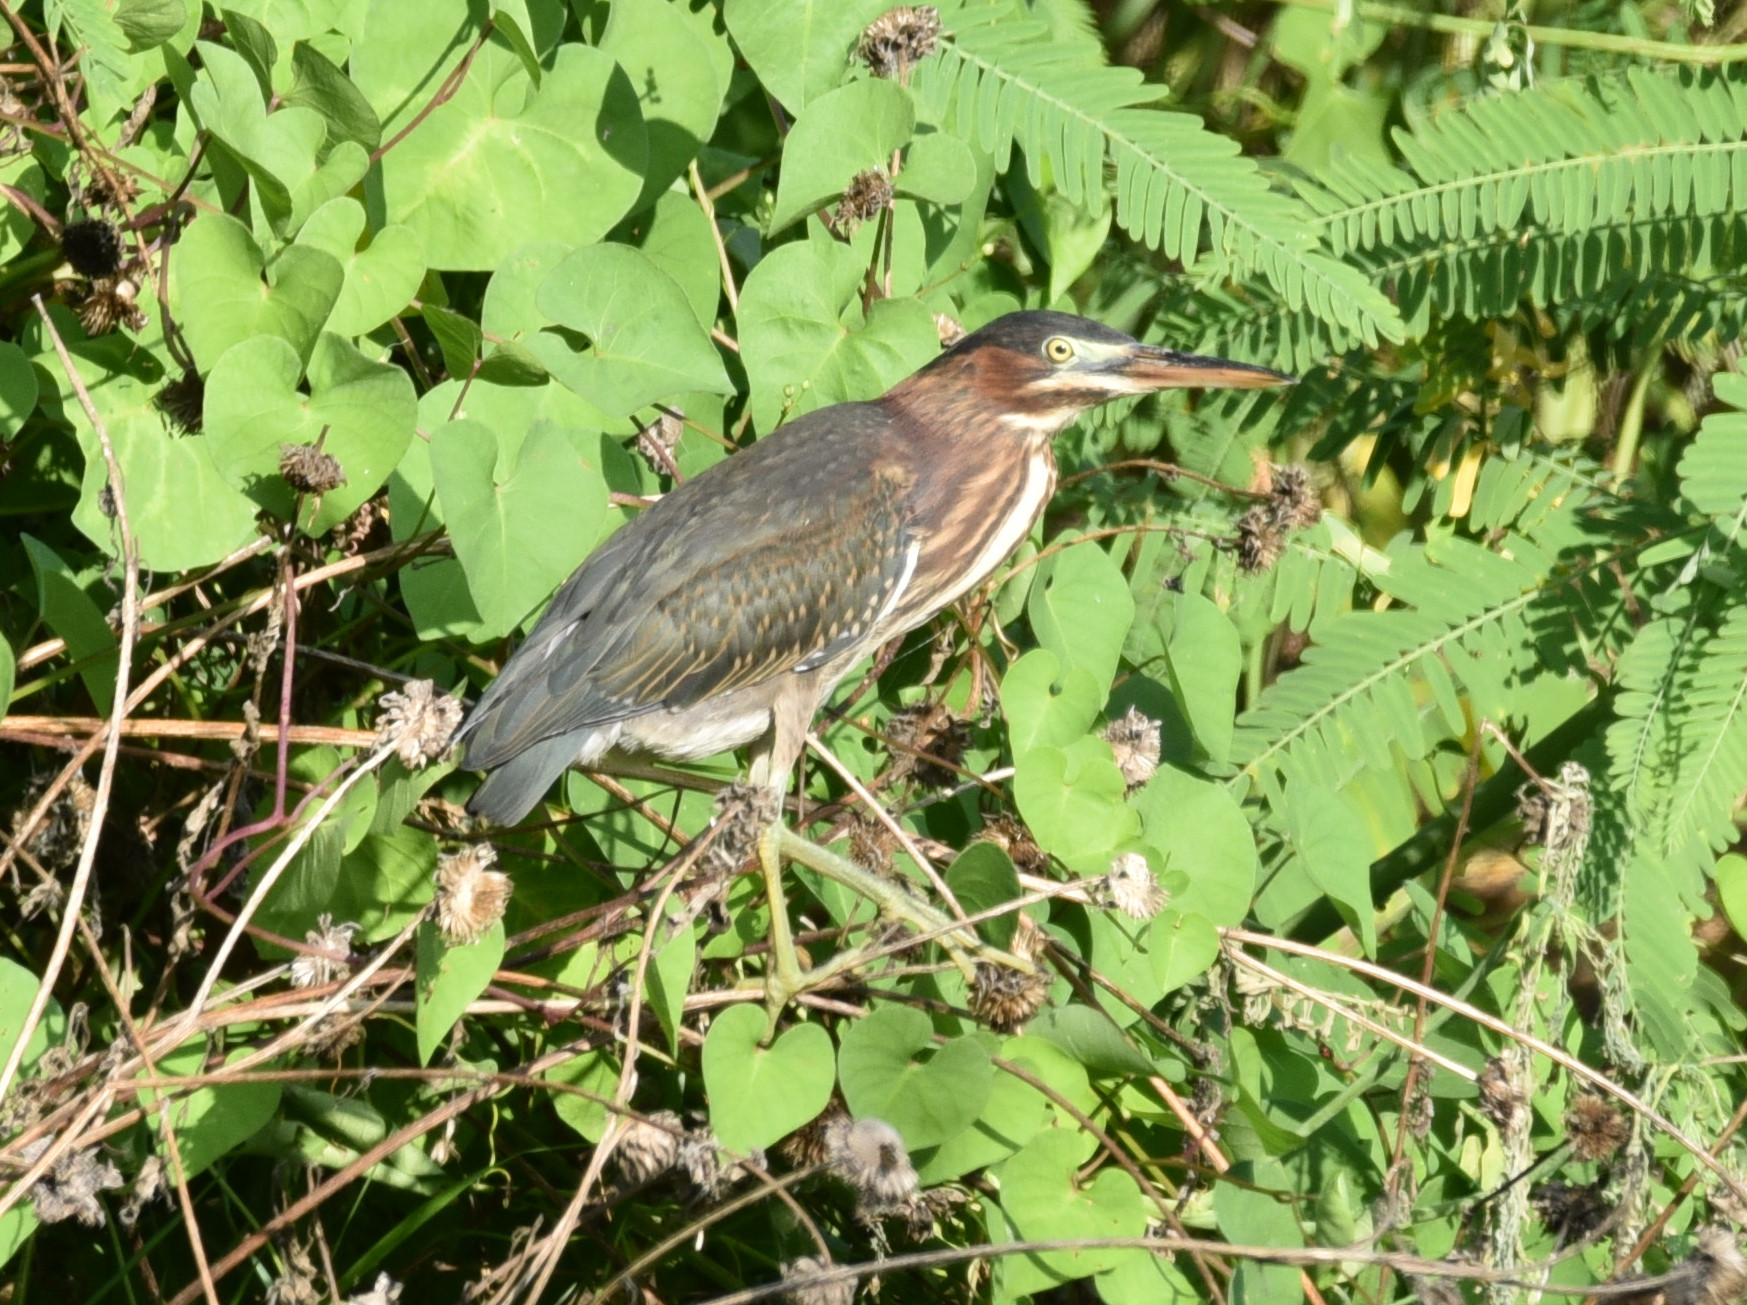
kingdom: Animalia
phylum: Chordata
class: Aves
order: Pelecaniformes
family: Ardeidae
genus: Butorides
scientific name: Butorides virescens
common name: Green heron
